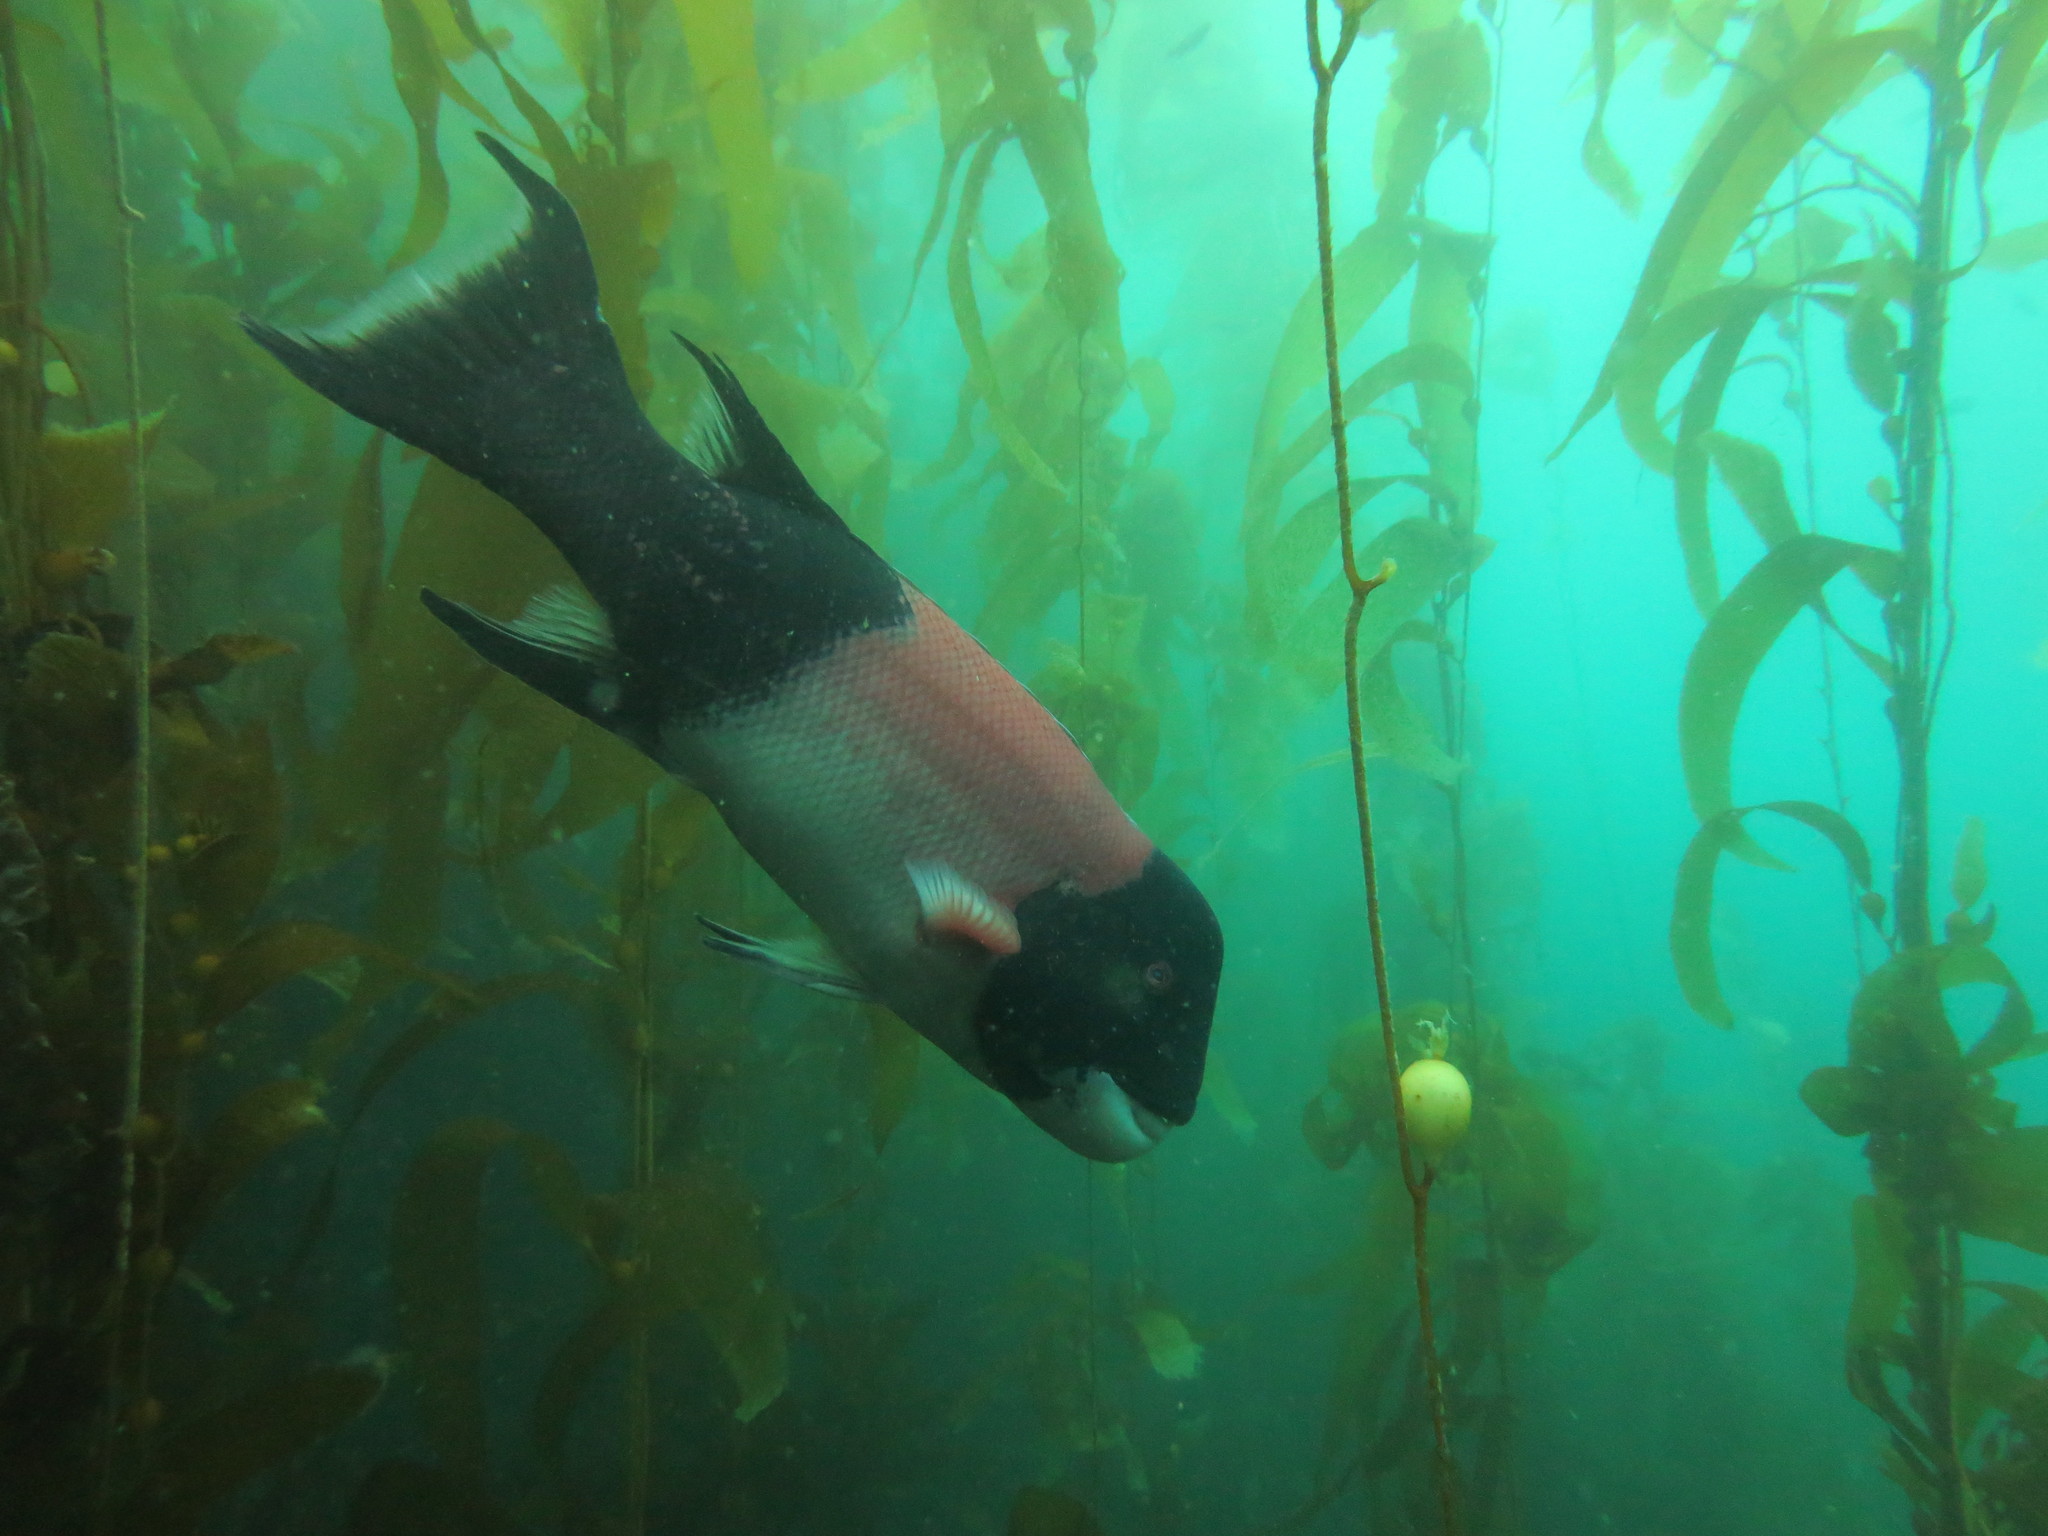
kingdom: Animalia
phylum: Chordata
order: Perciformes
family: Labridae
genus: Semicossyphus
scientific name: Semicossyphus pulcher
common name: California sheephead
